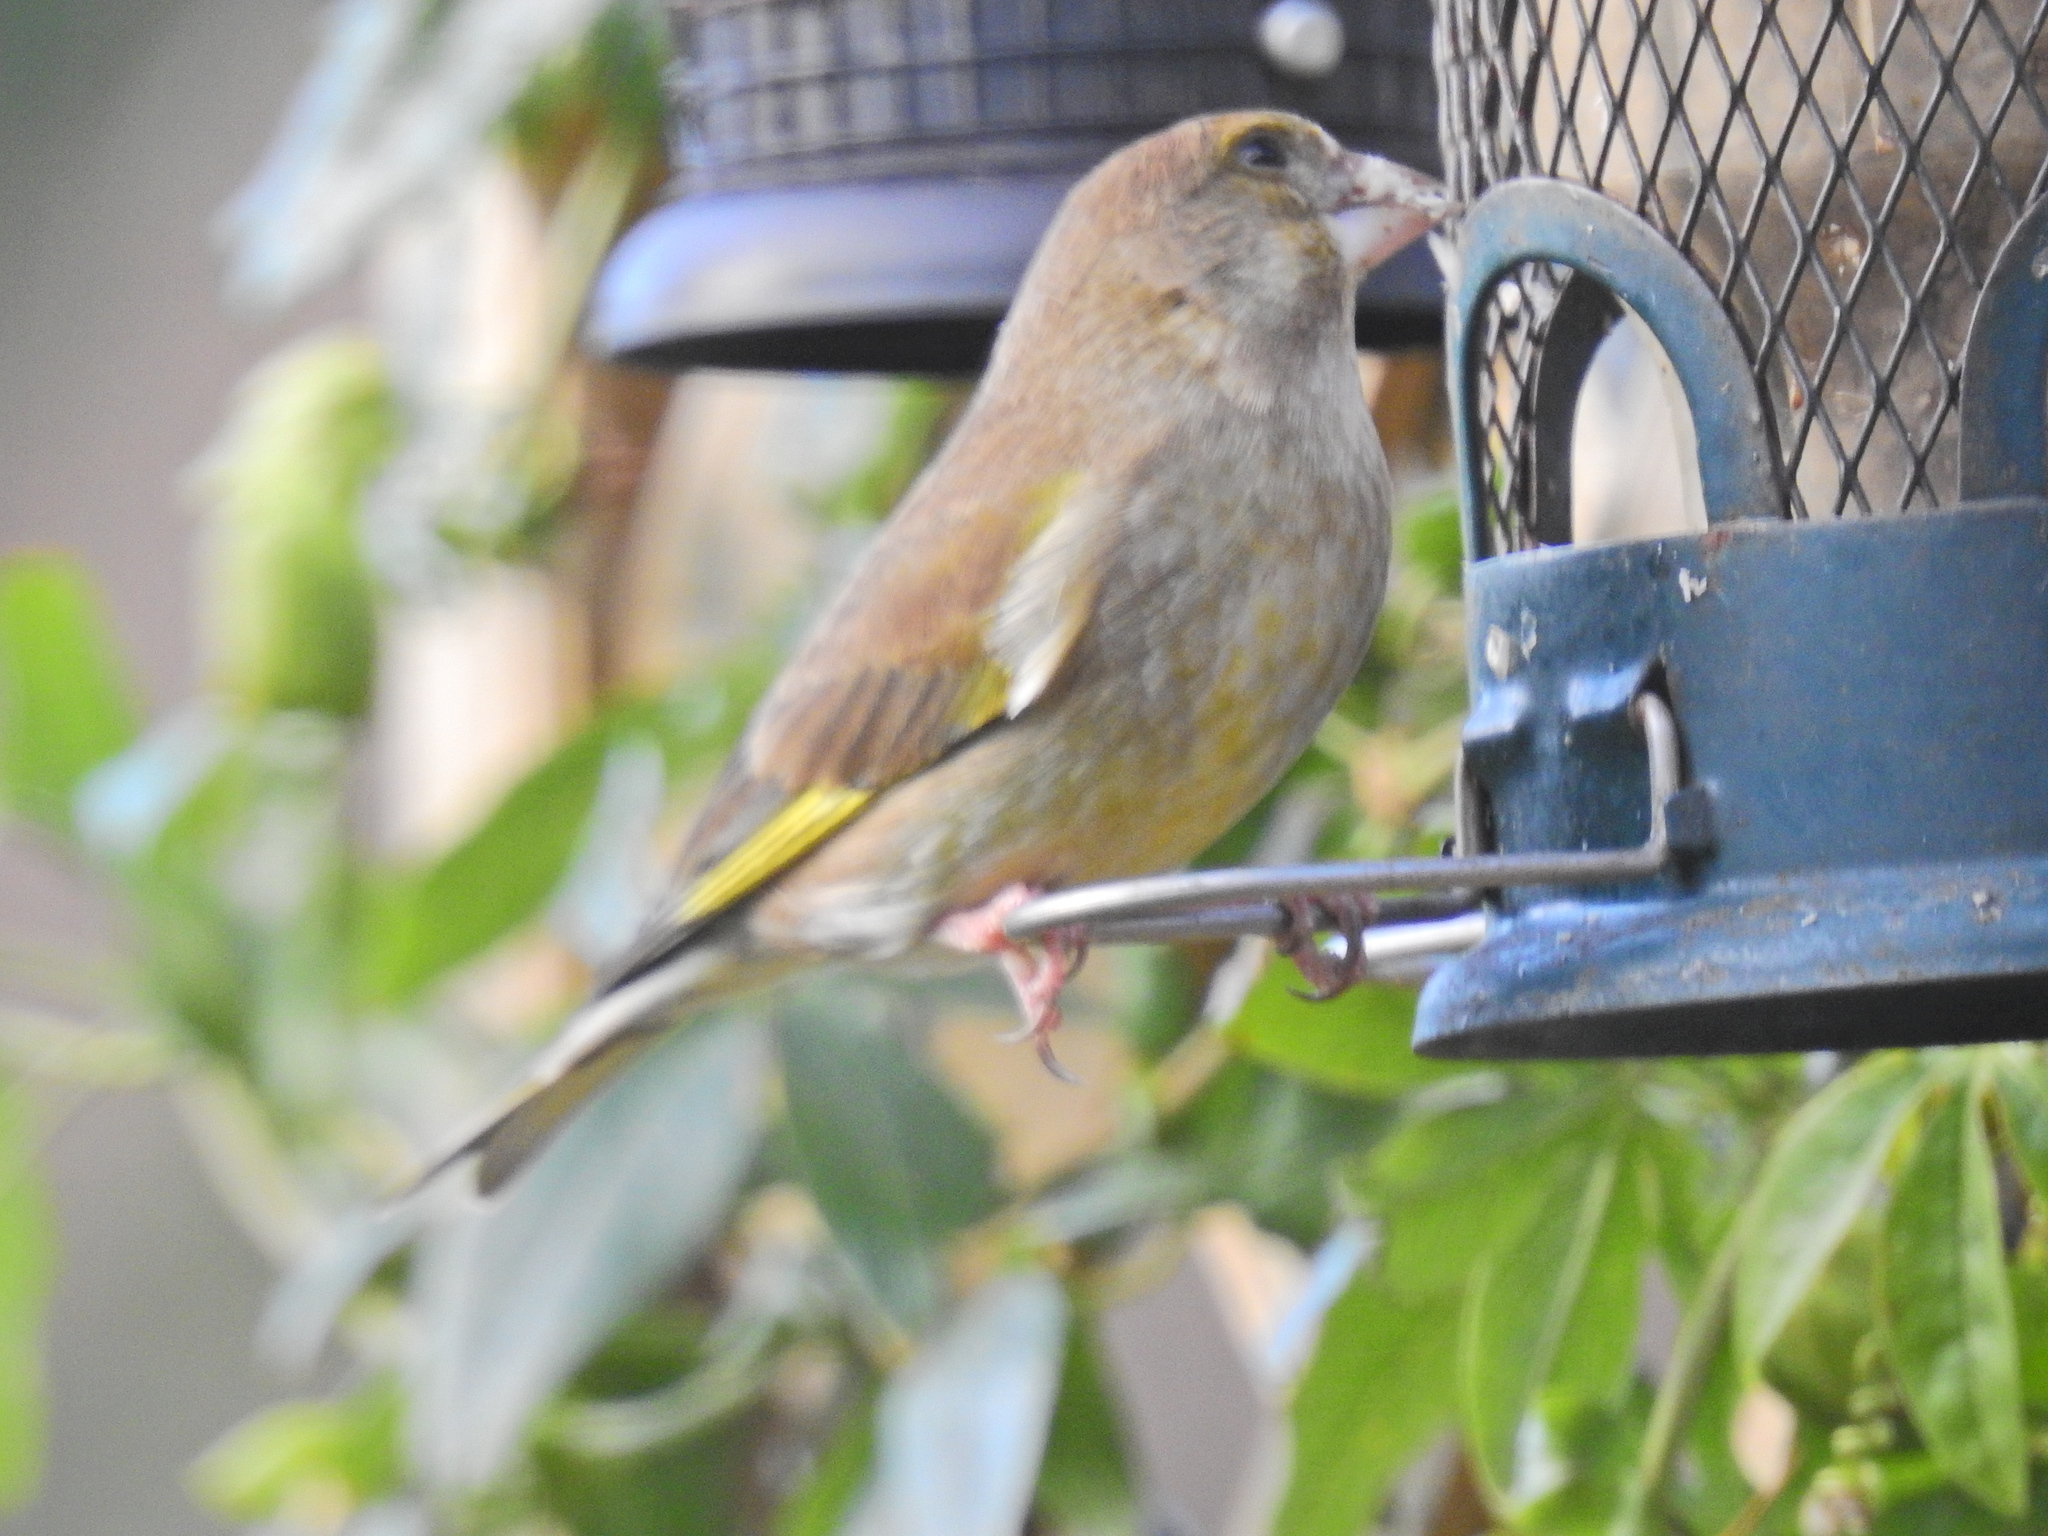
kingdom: Plantae
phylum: Tracheophyta
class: Liliopsida
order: Poales
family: Poaceae
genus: Chloris
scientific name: Chloris chloris
